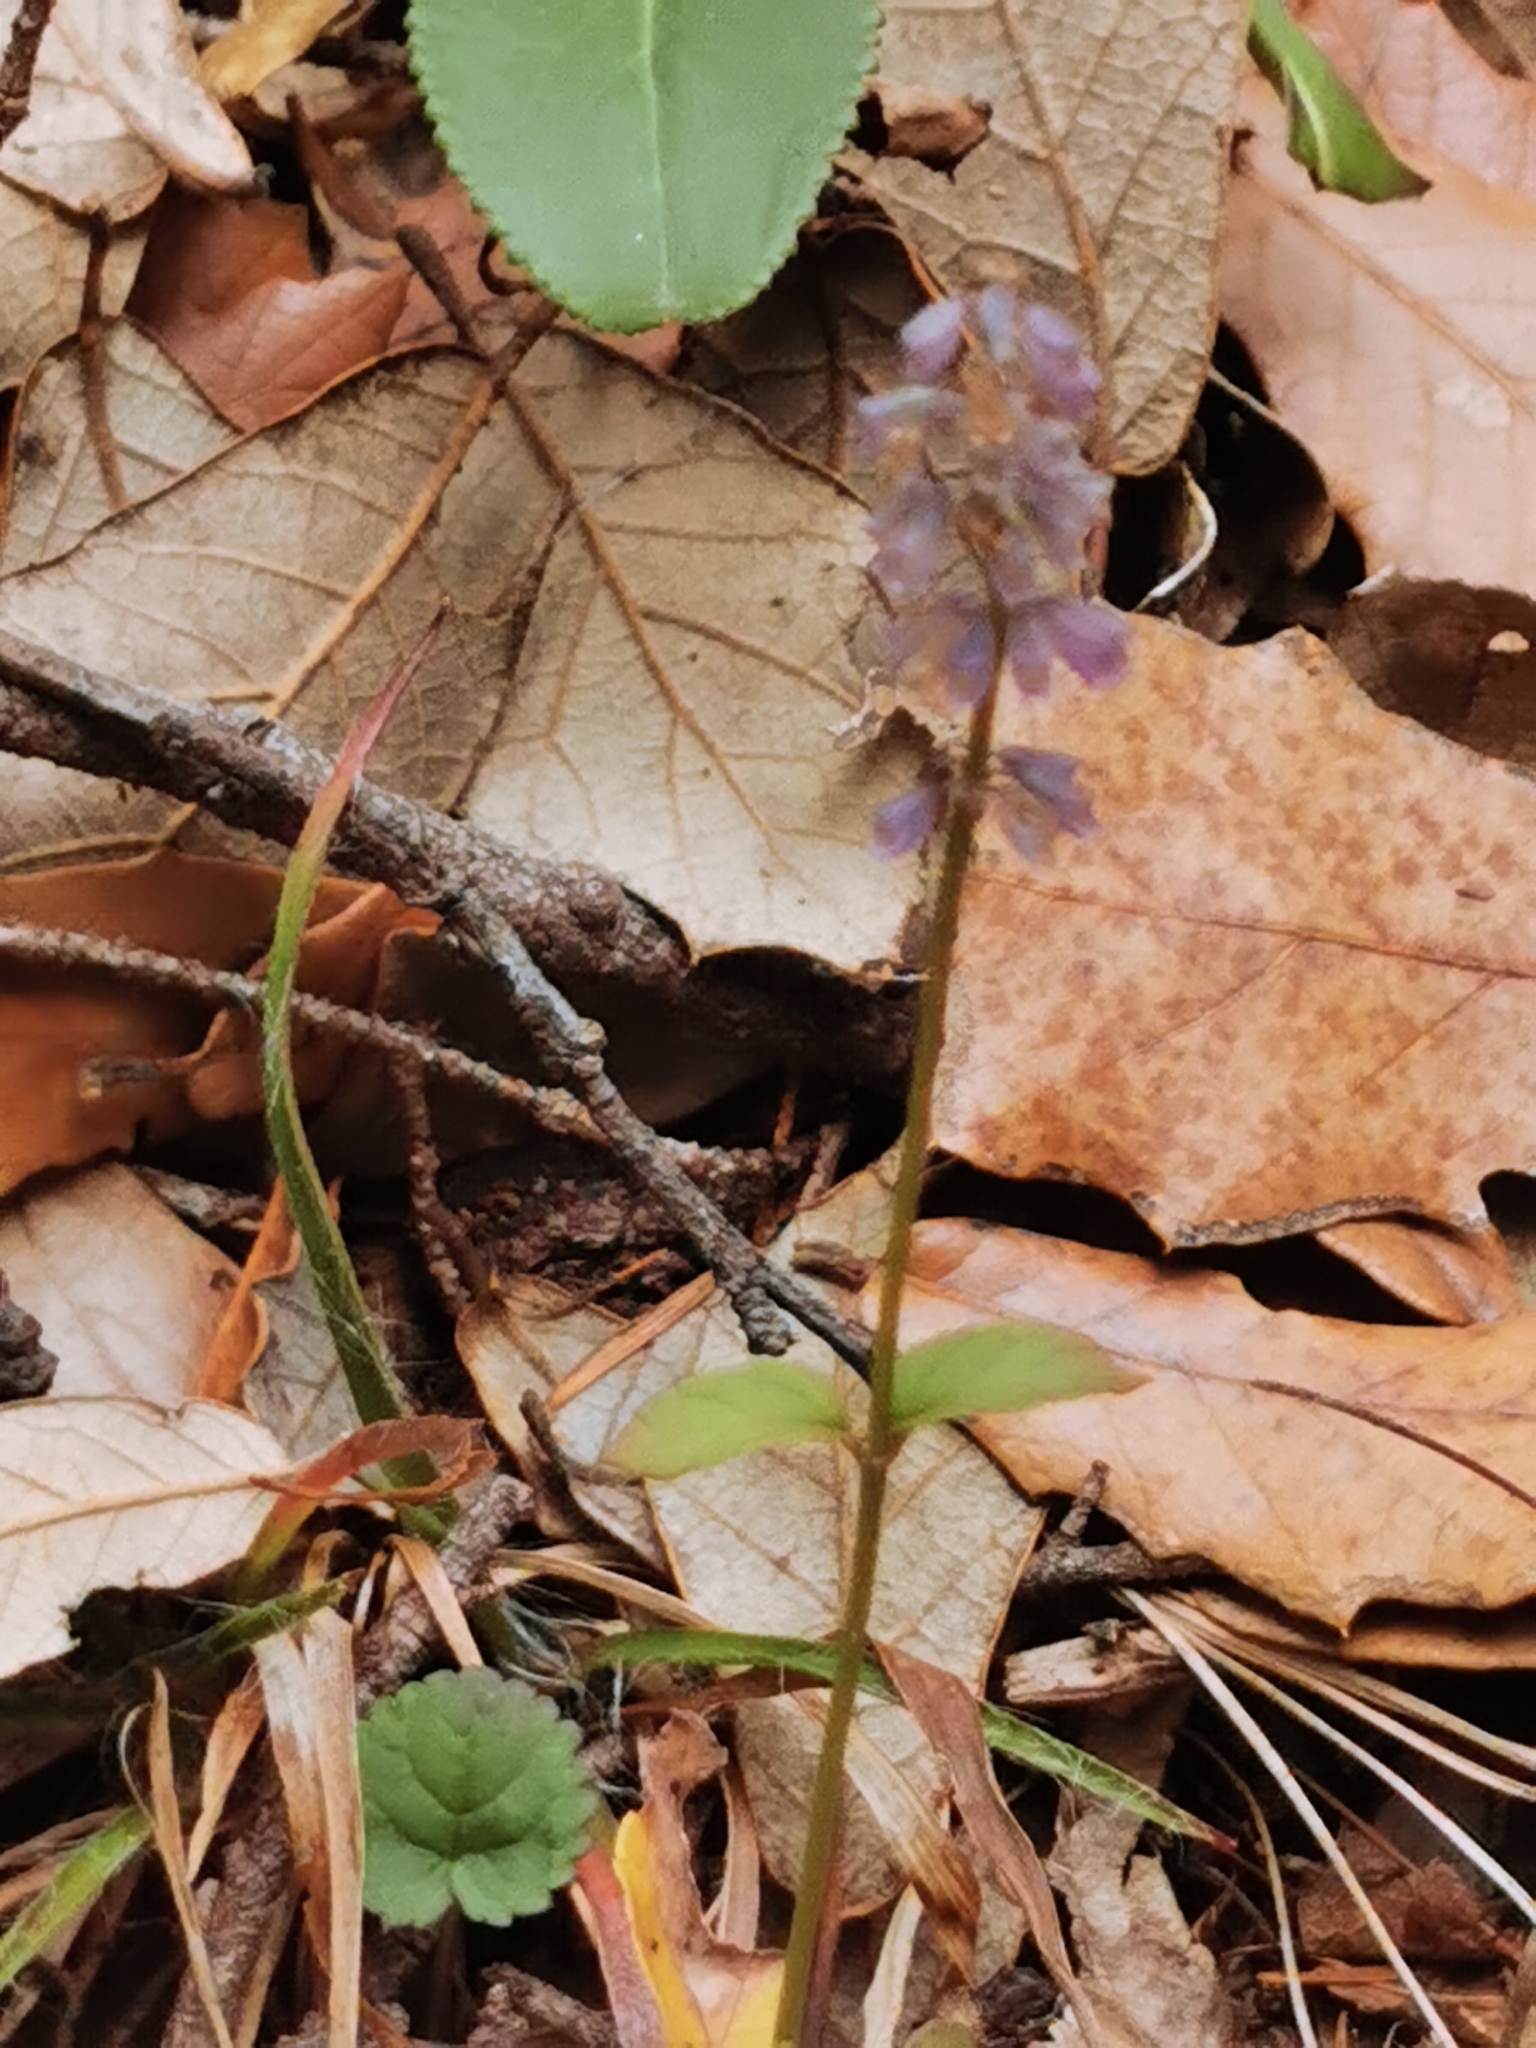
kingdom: Plantae
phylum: Tracheophyta
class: Magnoliopsida
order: Lamiales
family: Lamiaceae
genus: Salvia
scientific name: Salvia lavanduloides
